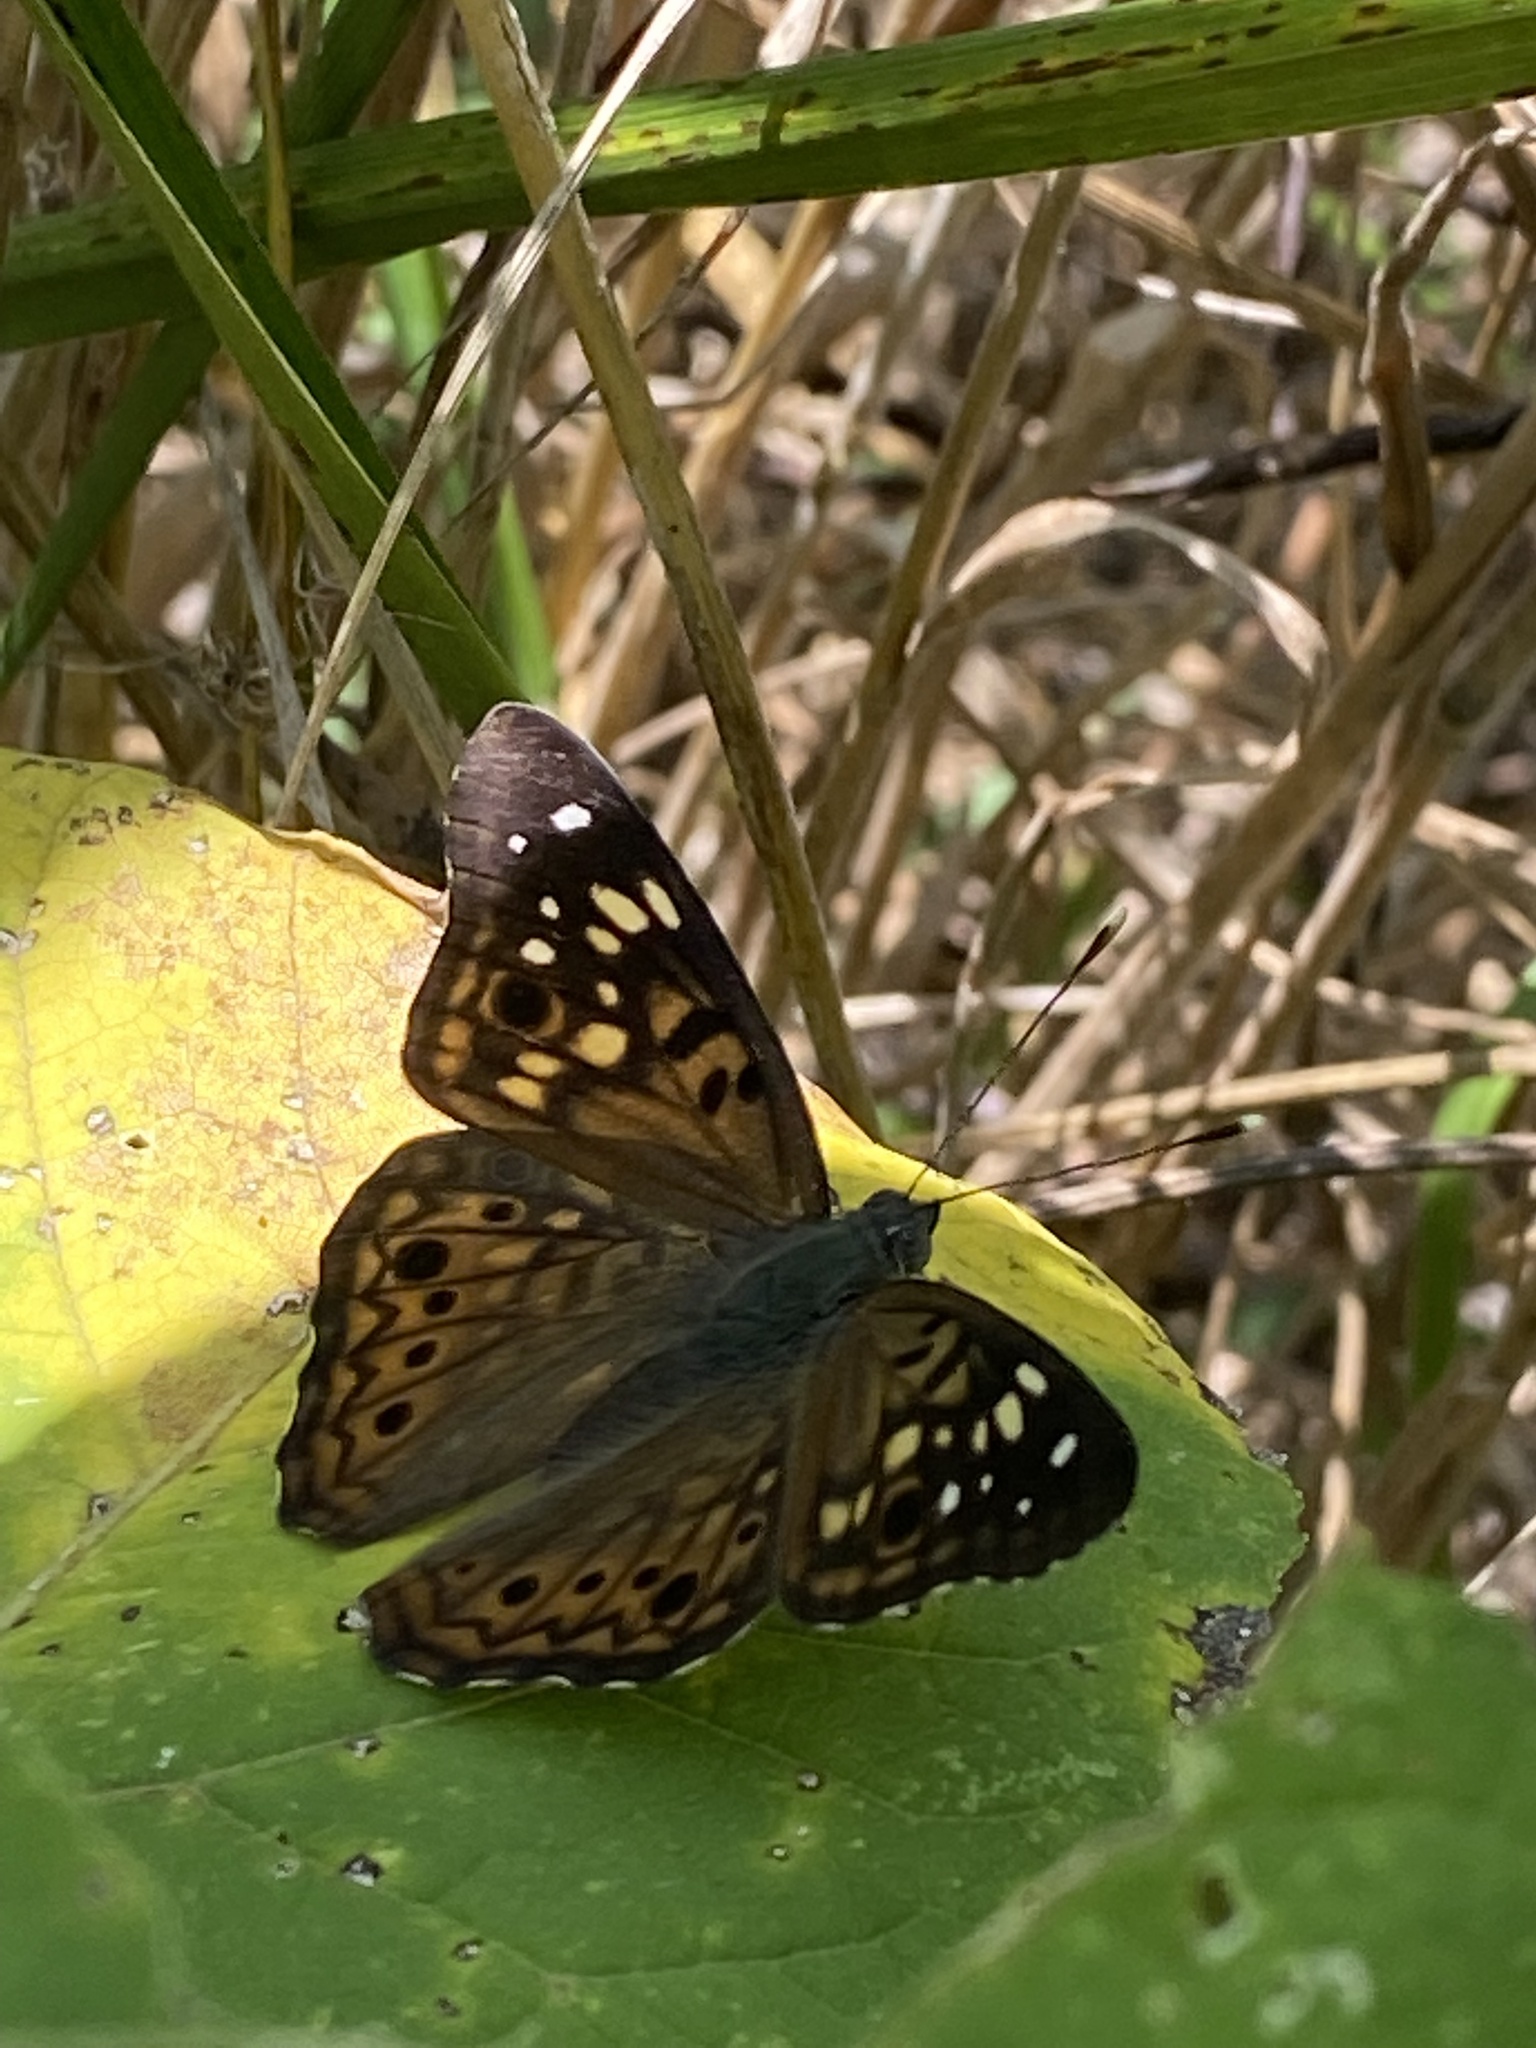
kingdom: Animalia
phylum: Arthropoda
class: Insecta
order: Lepidoptera
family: Nymphalidae
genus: Asterocampa
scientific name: Asterocampa celtis
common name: Hackberry emperor
